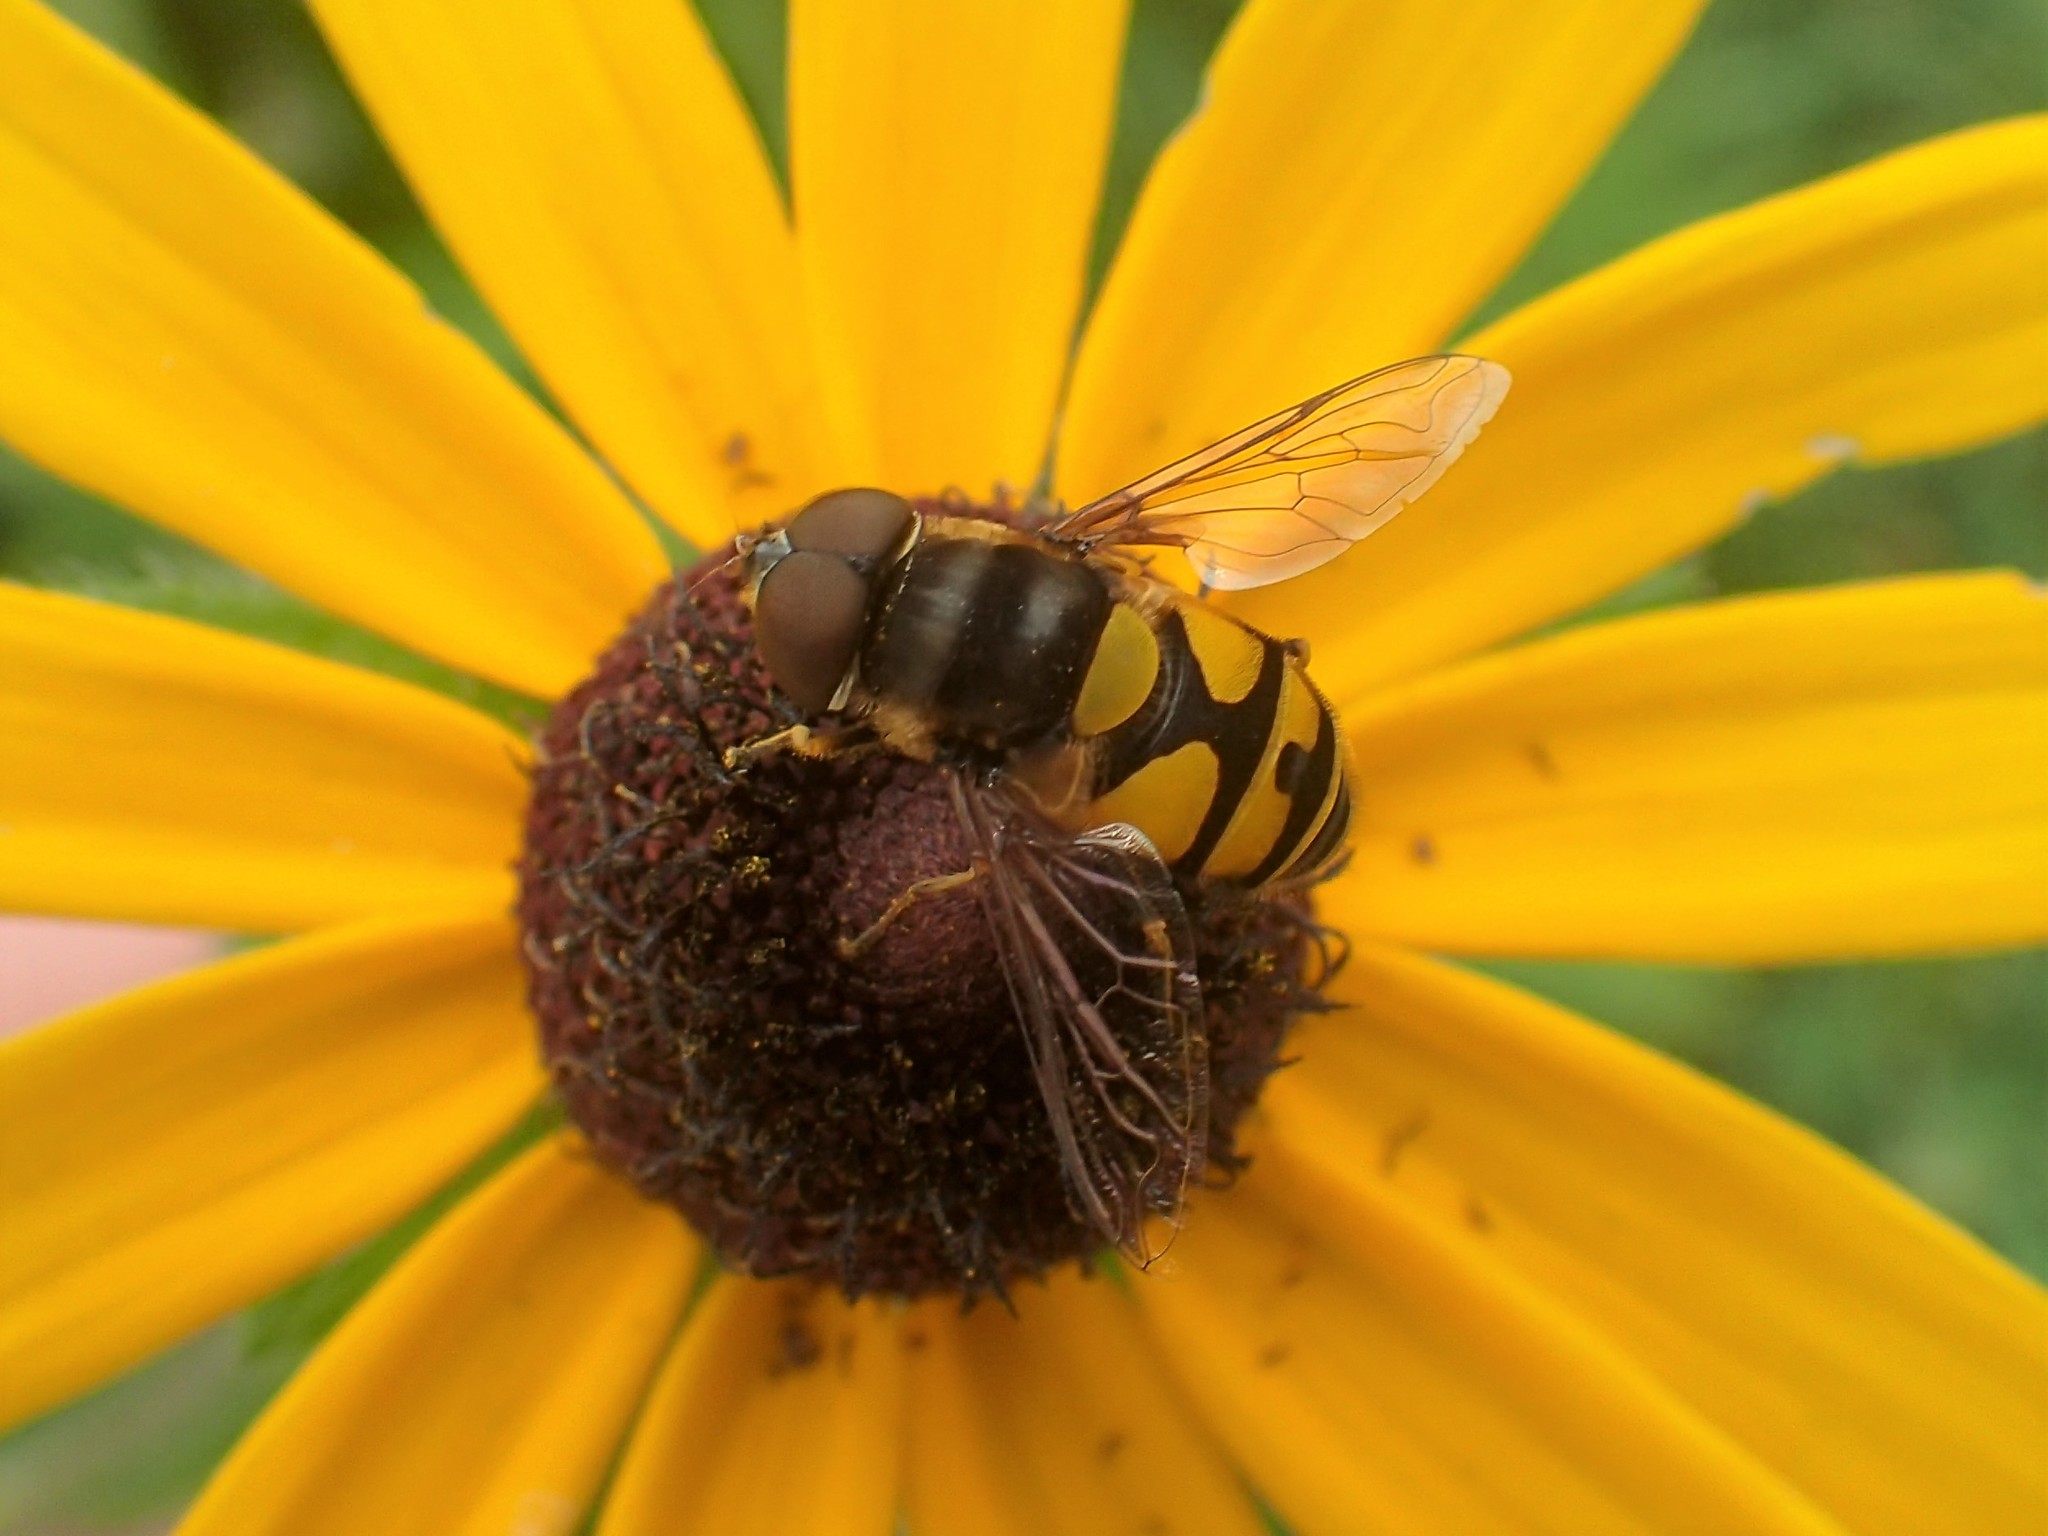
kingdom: Animalia
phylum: Arthropoda
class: Insecta
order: Diptera
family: Syrphidae
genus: Eristalis
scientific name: Eristalis transversa
